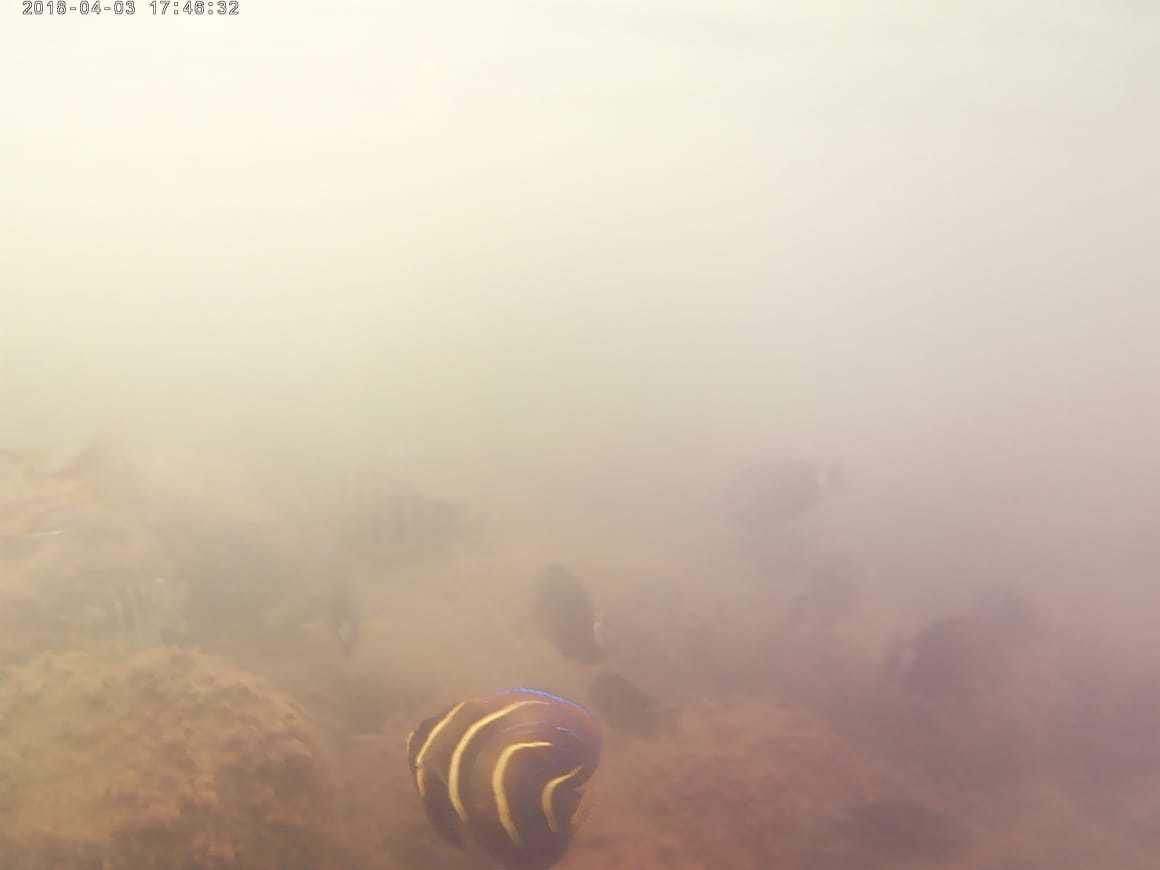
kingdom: Animalia
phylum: Chordata
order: Perciformes
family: Pomacanthidae
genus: Pomacanthus
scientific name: Pomacanthus zonipectus
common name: Cortez angelfish
